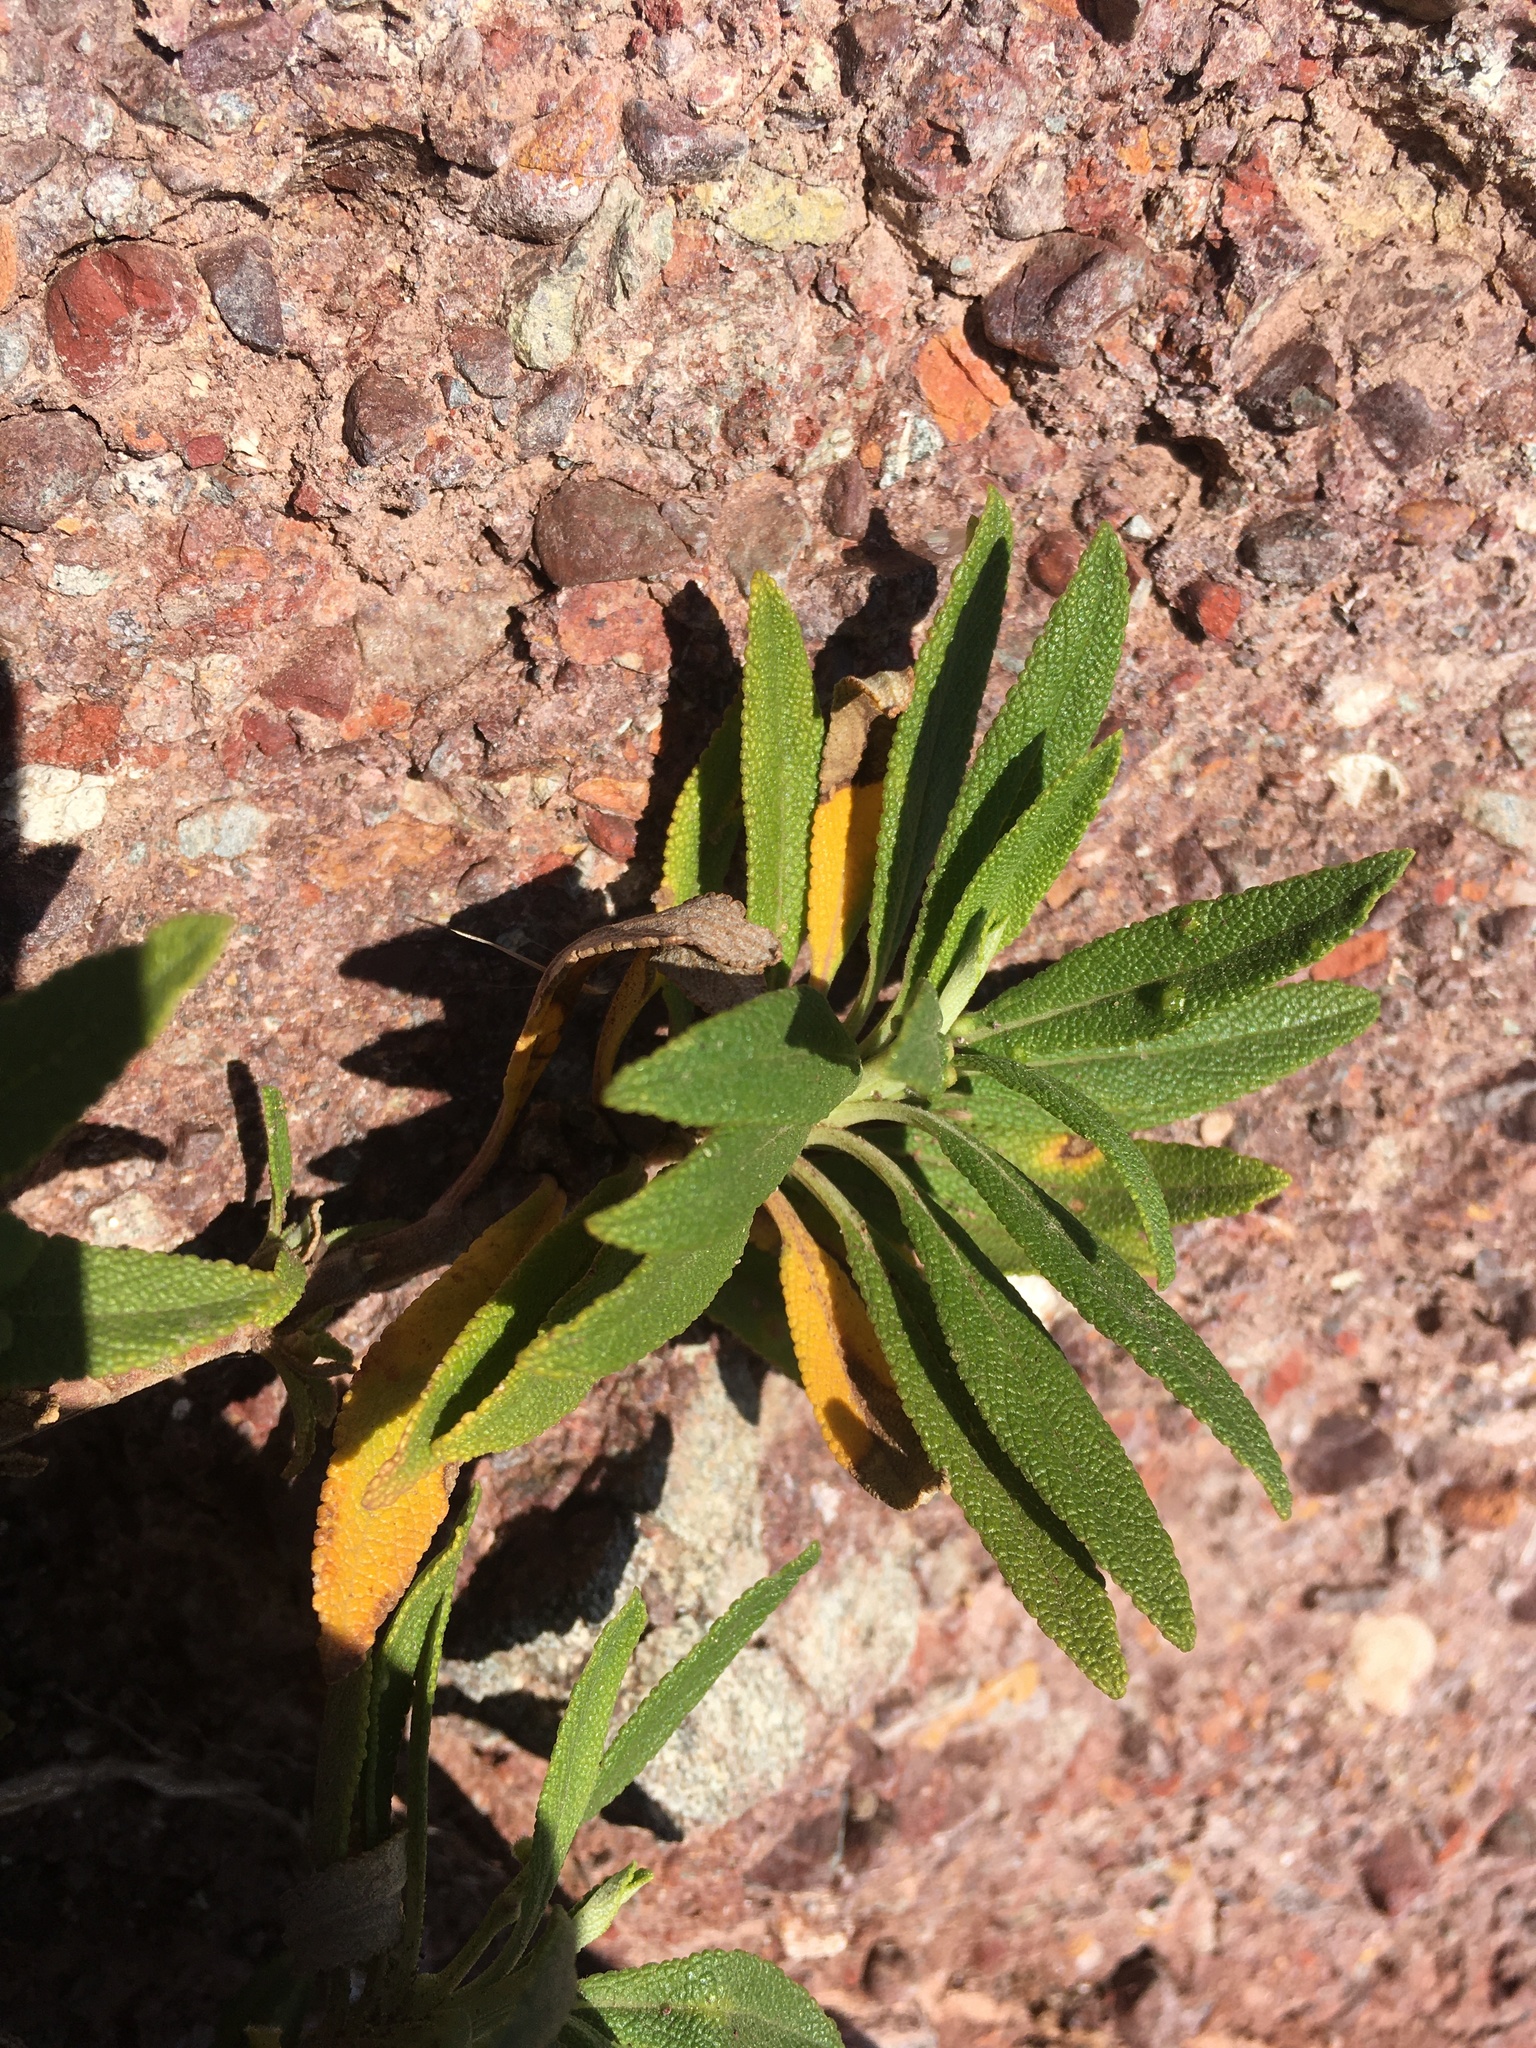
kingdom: Plantae
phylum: Tracheophyta
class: Magnoliopsida
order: Lamiales
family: Lamiaceae
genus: Salvia
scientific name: Salvia mellifera
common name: Black sage
